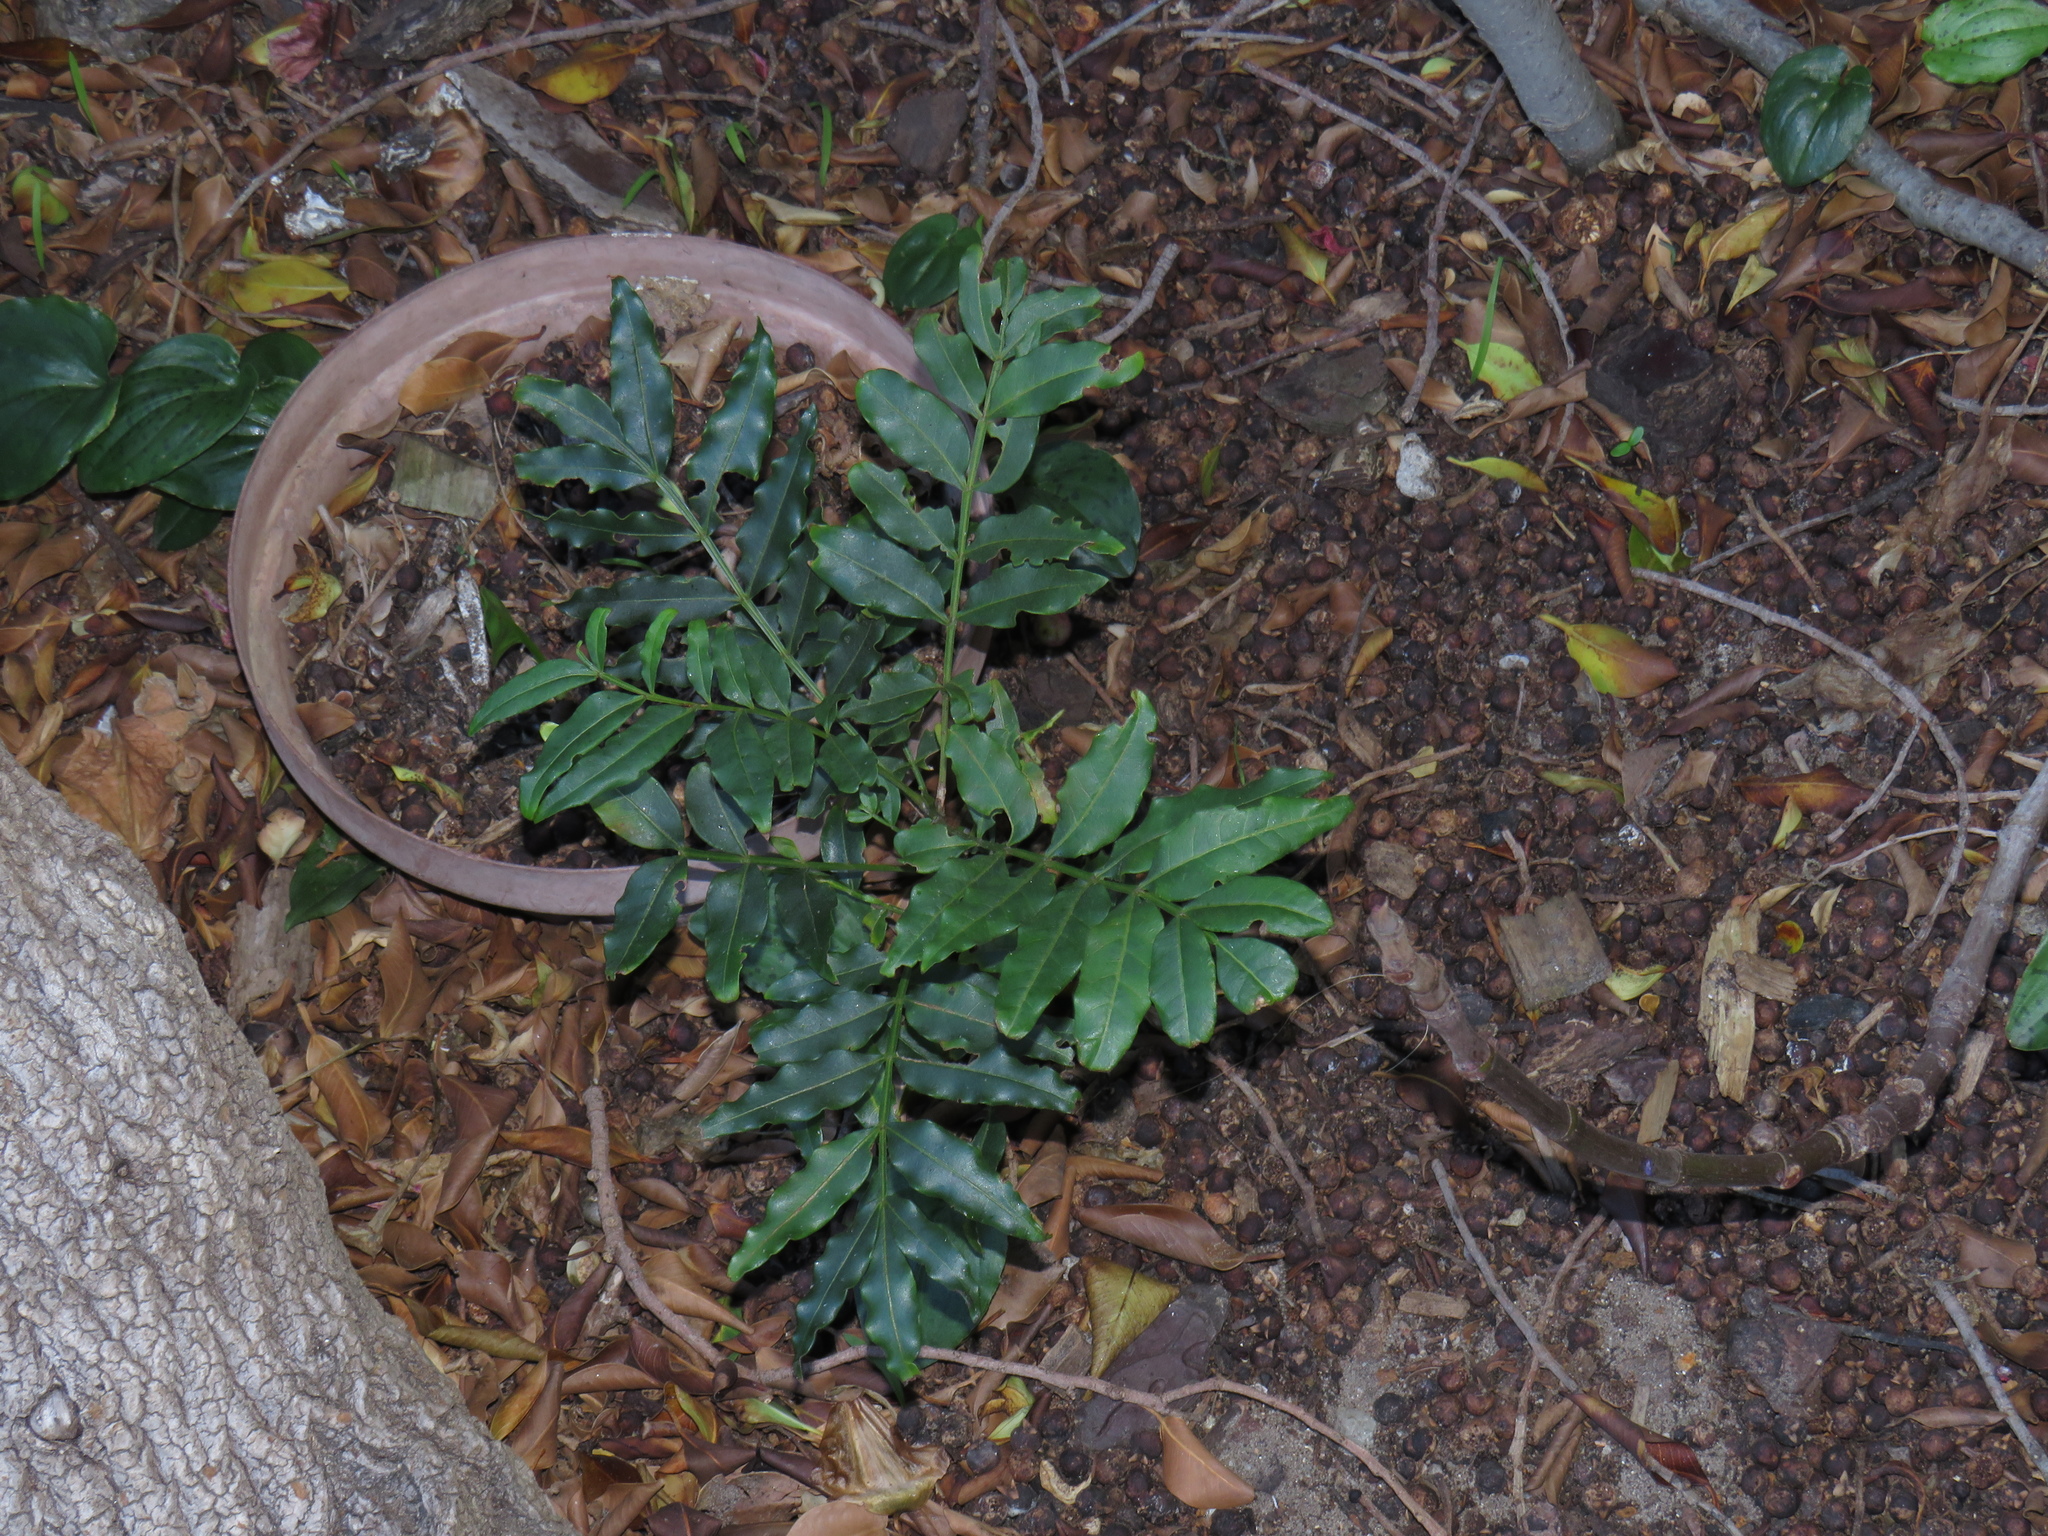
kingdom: Plantae
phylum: Tracheophyta
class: Magnoliopsida
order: Sapindales
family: Meliaceae
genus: Ekebergia
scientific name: Ekebergia capensis
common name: Cape-ash
